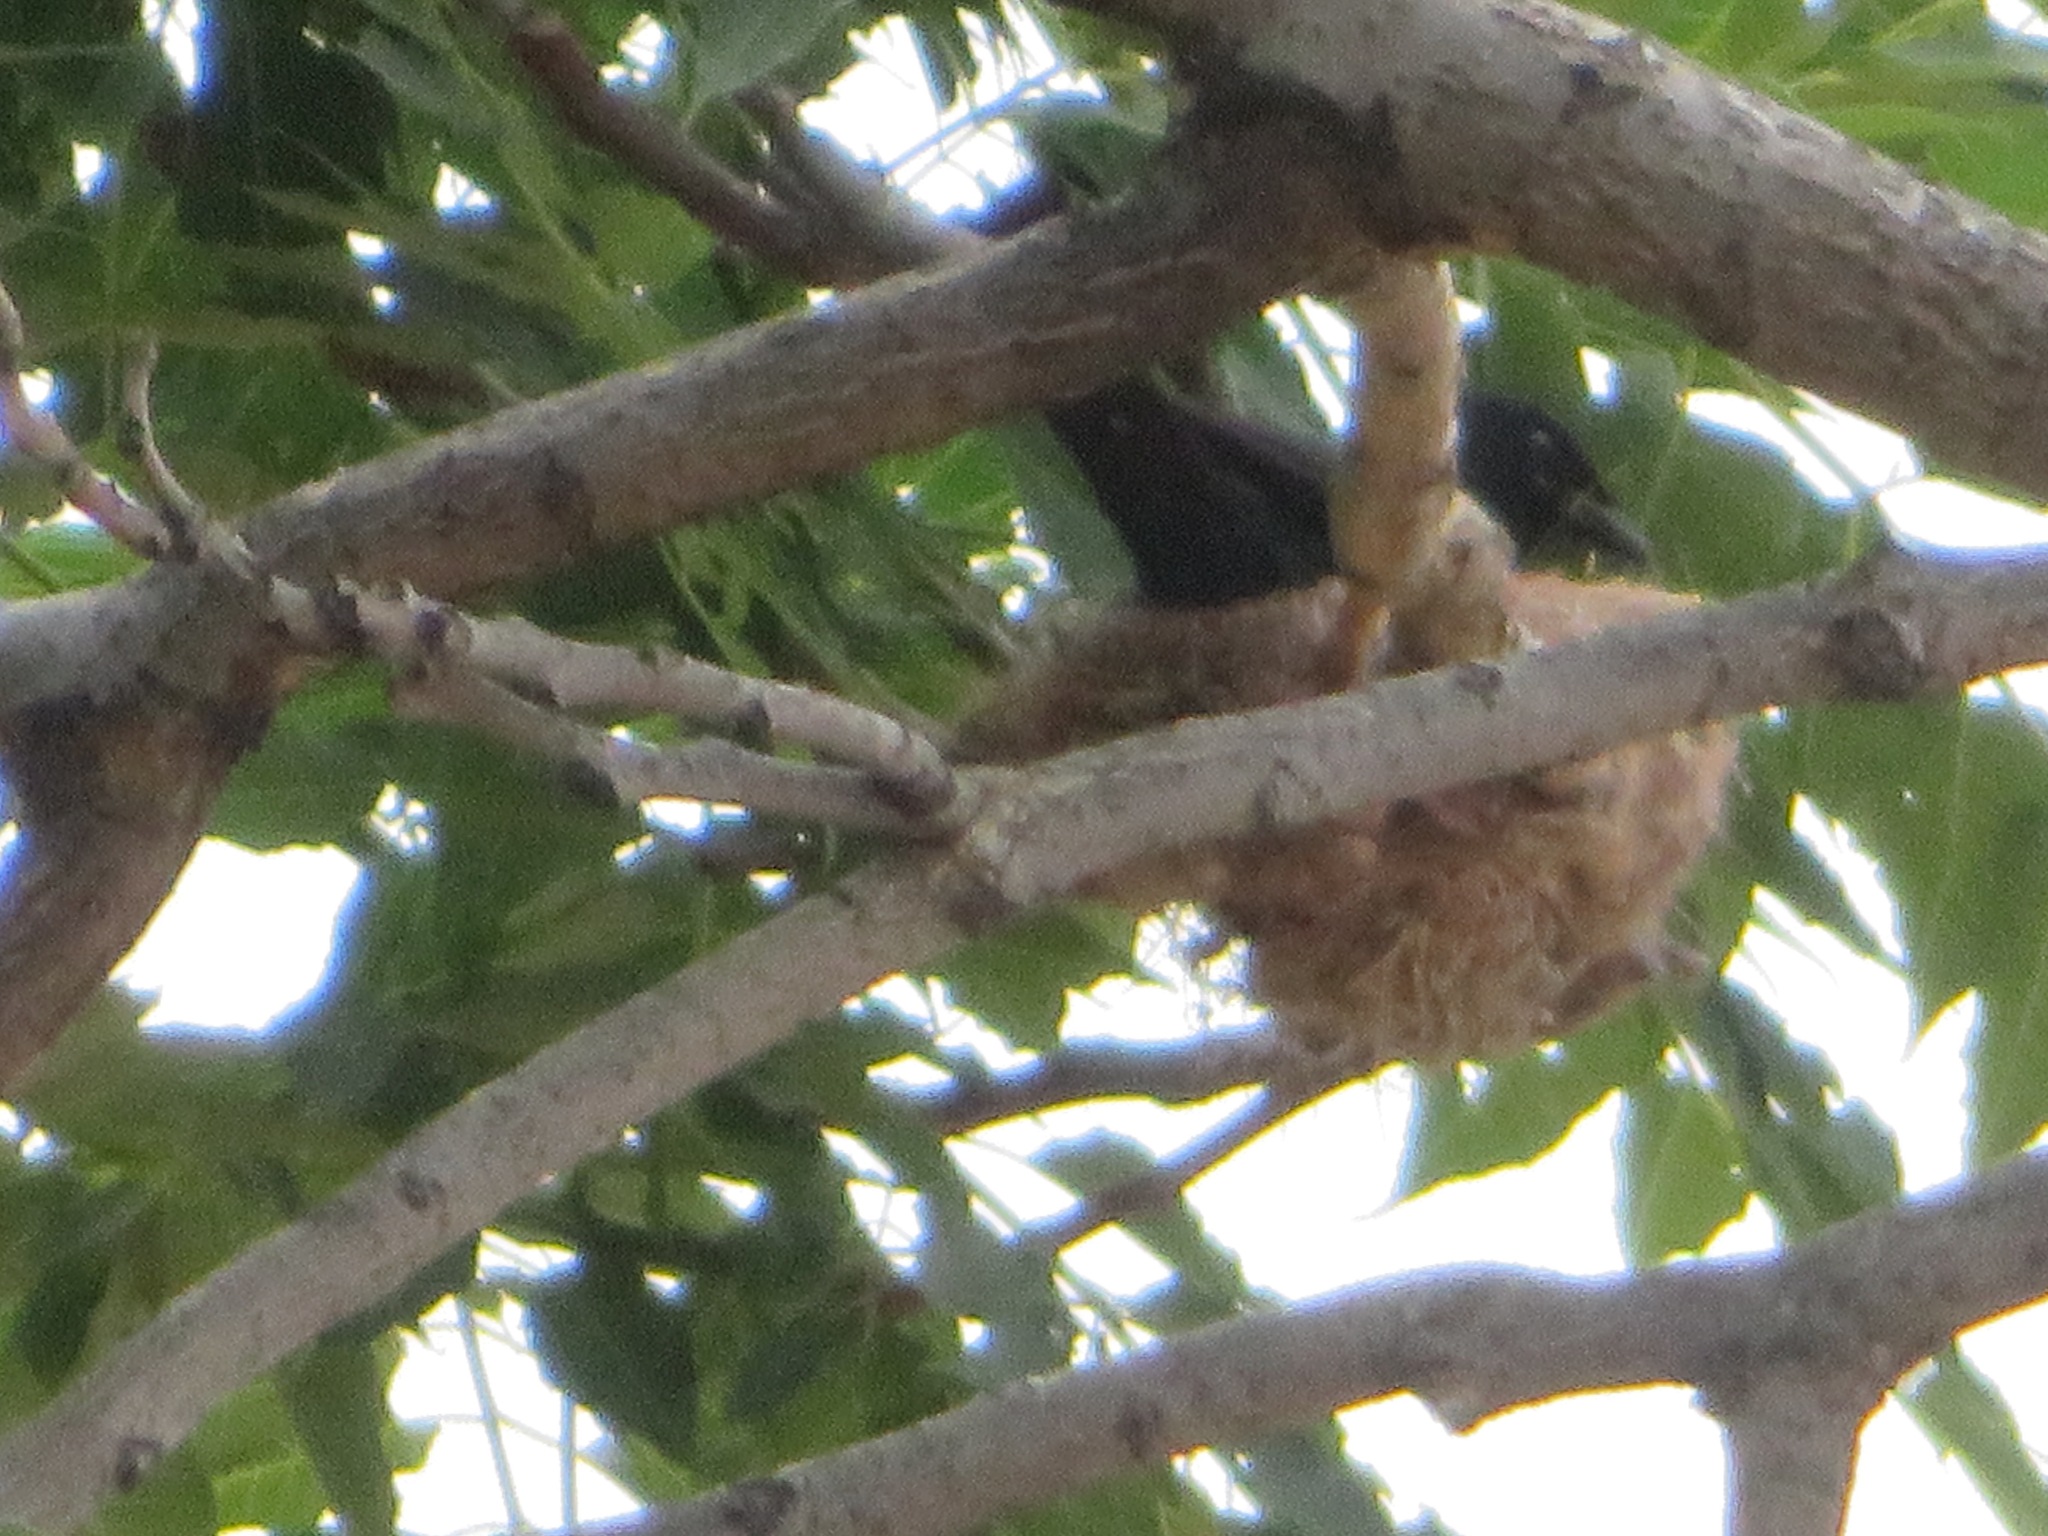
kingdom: Animalia
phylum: Chordata
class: Aves
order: Passeriformes
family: Dicruridae
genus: Dicrurus
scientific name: Dicrurus macrocercus
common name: Black drongo
